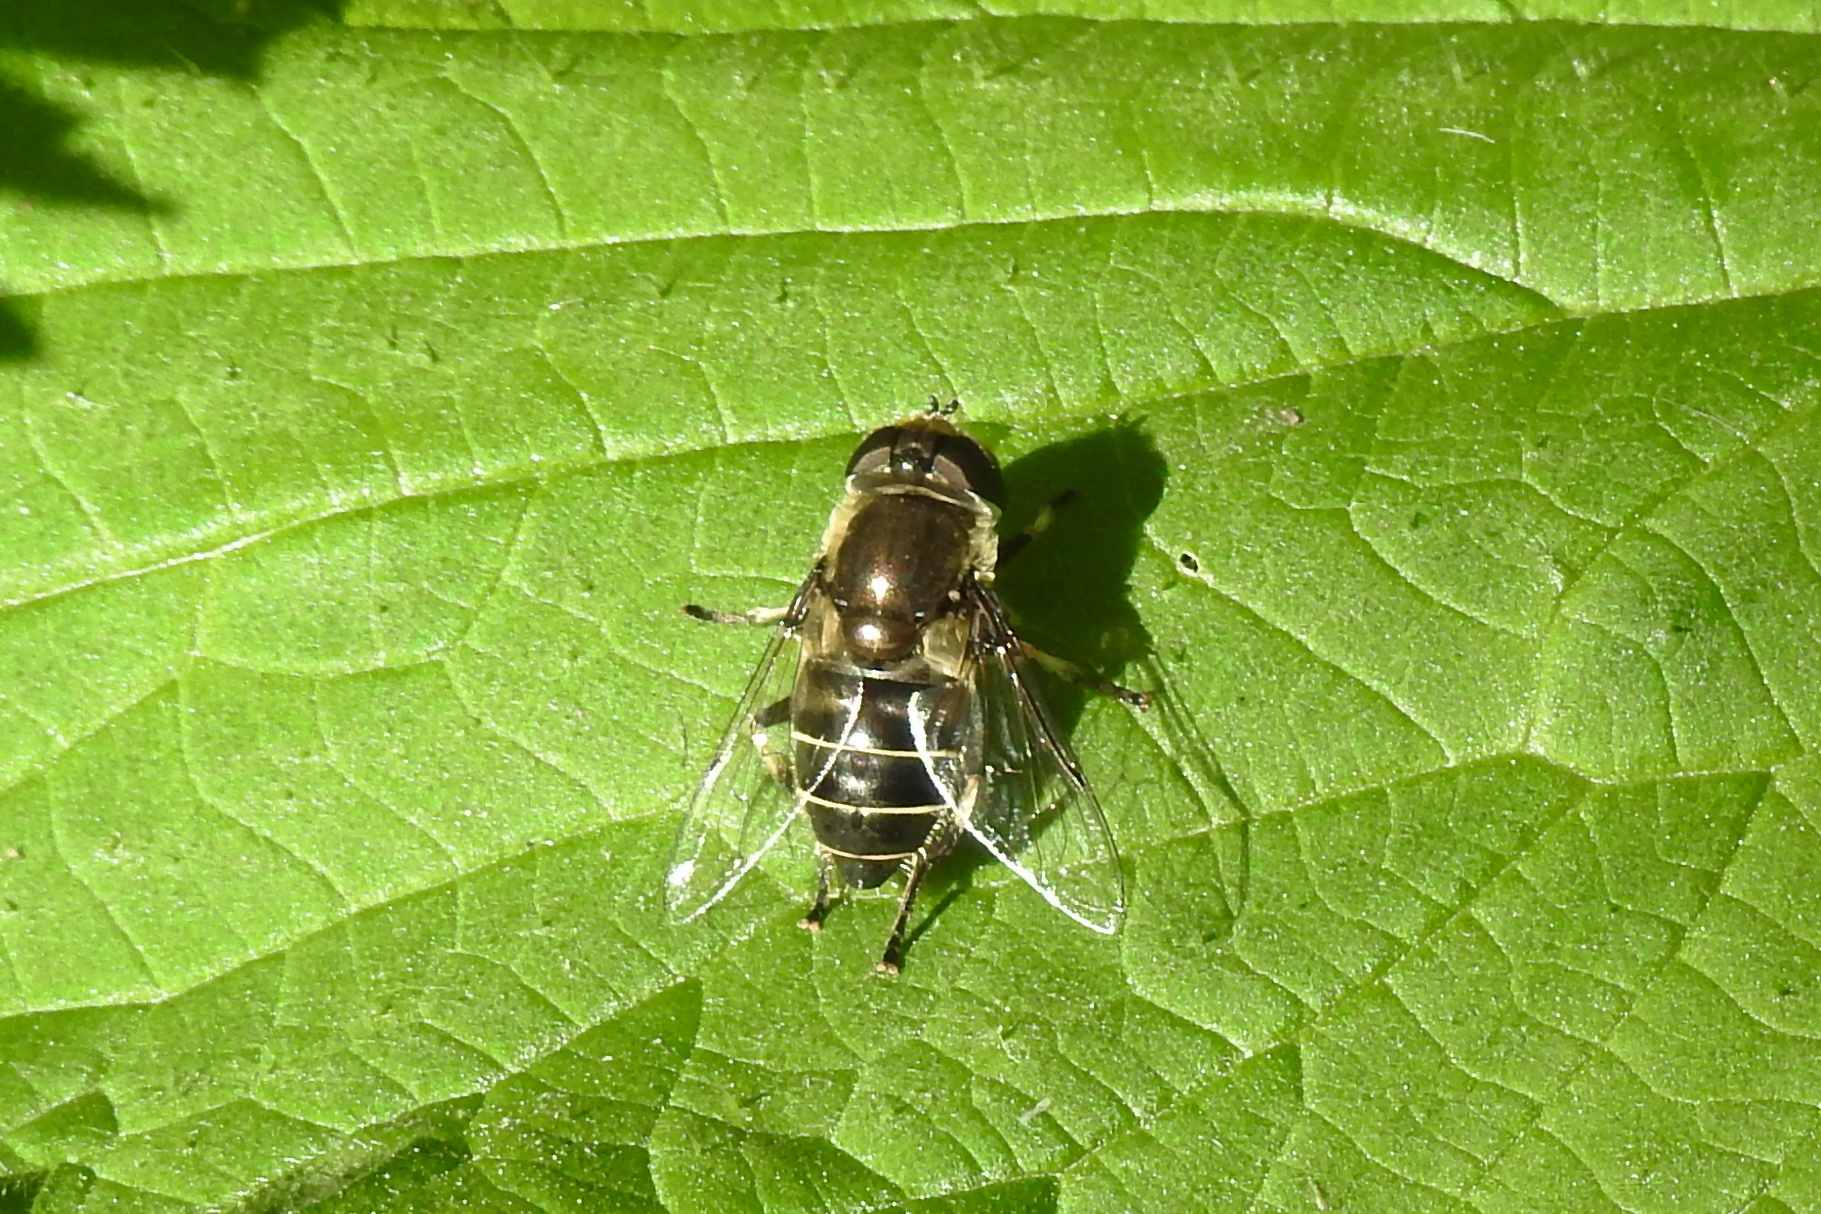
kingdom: Animalia
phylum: Arthropoda
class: Insecta
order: Diptera
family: Syrphidae
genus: Eristalis
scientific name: Eristalis dimidiata
